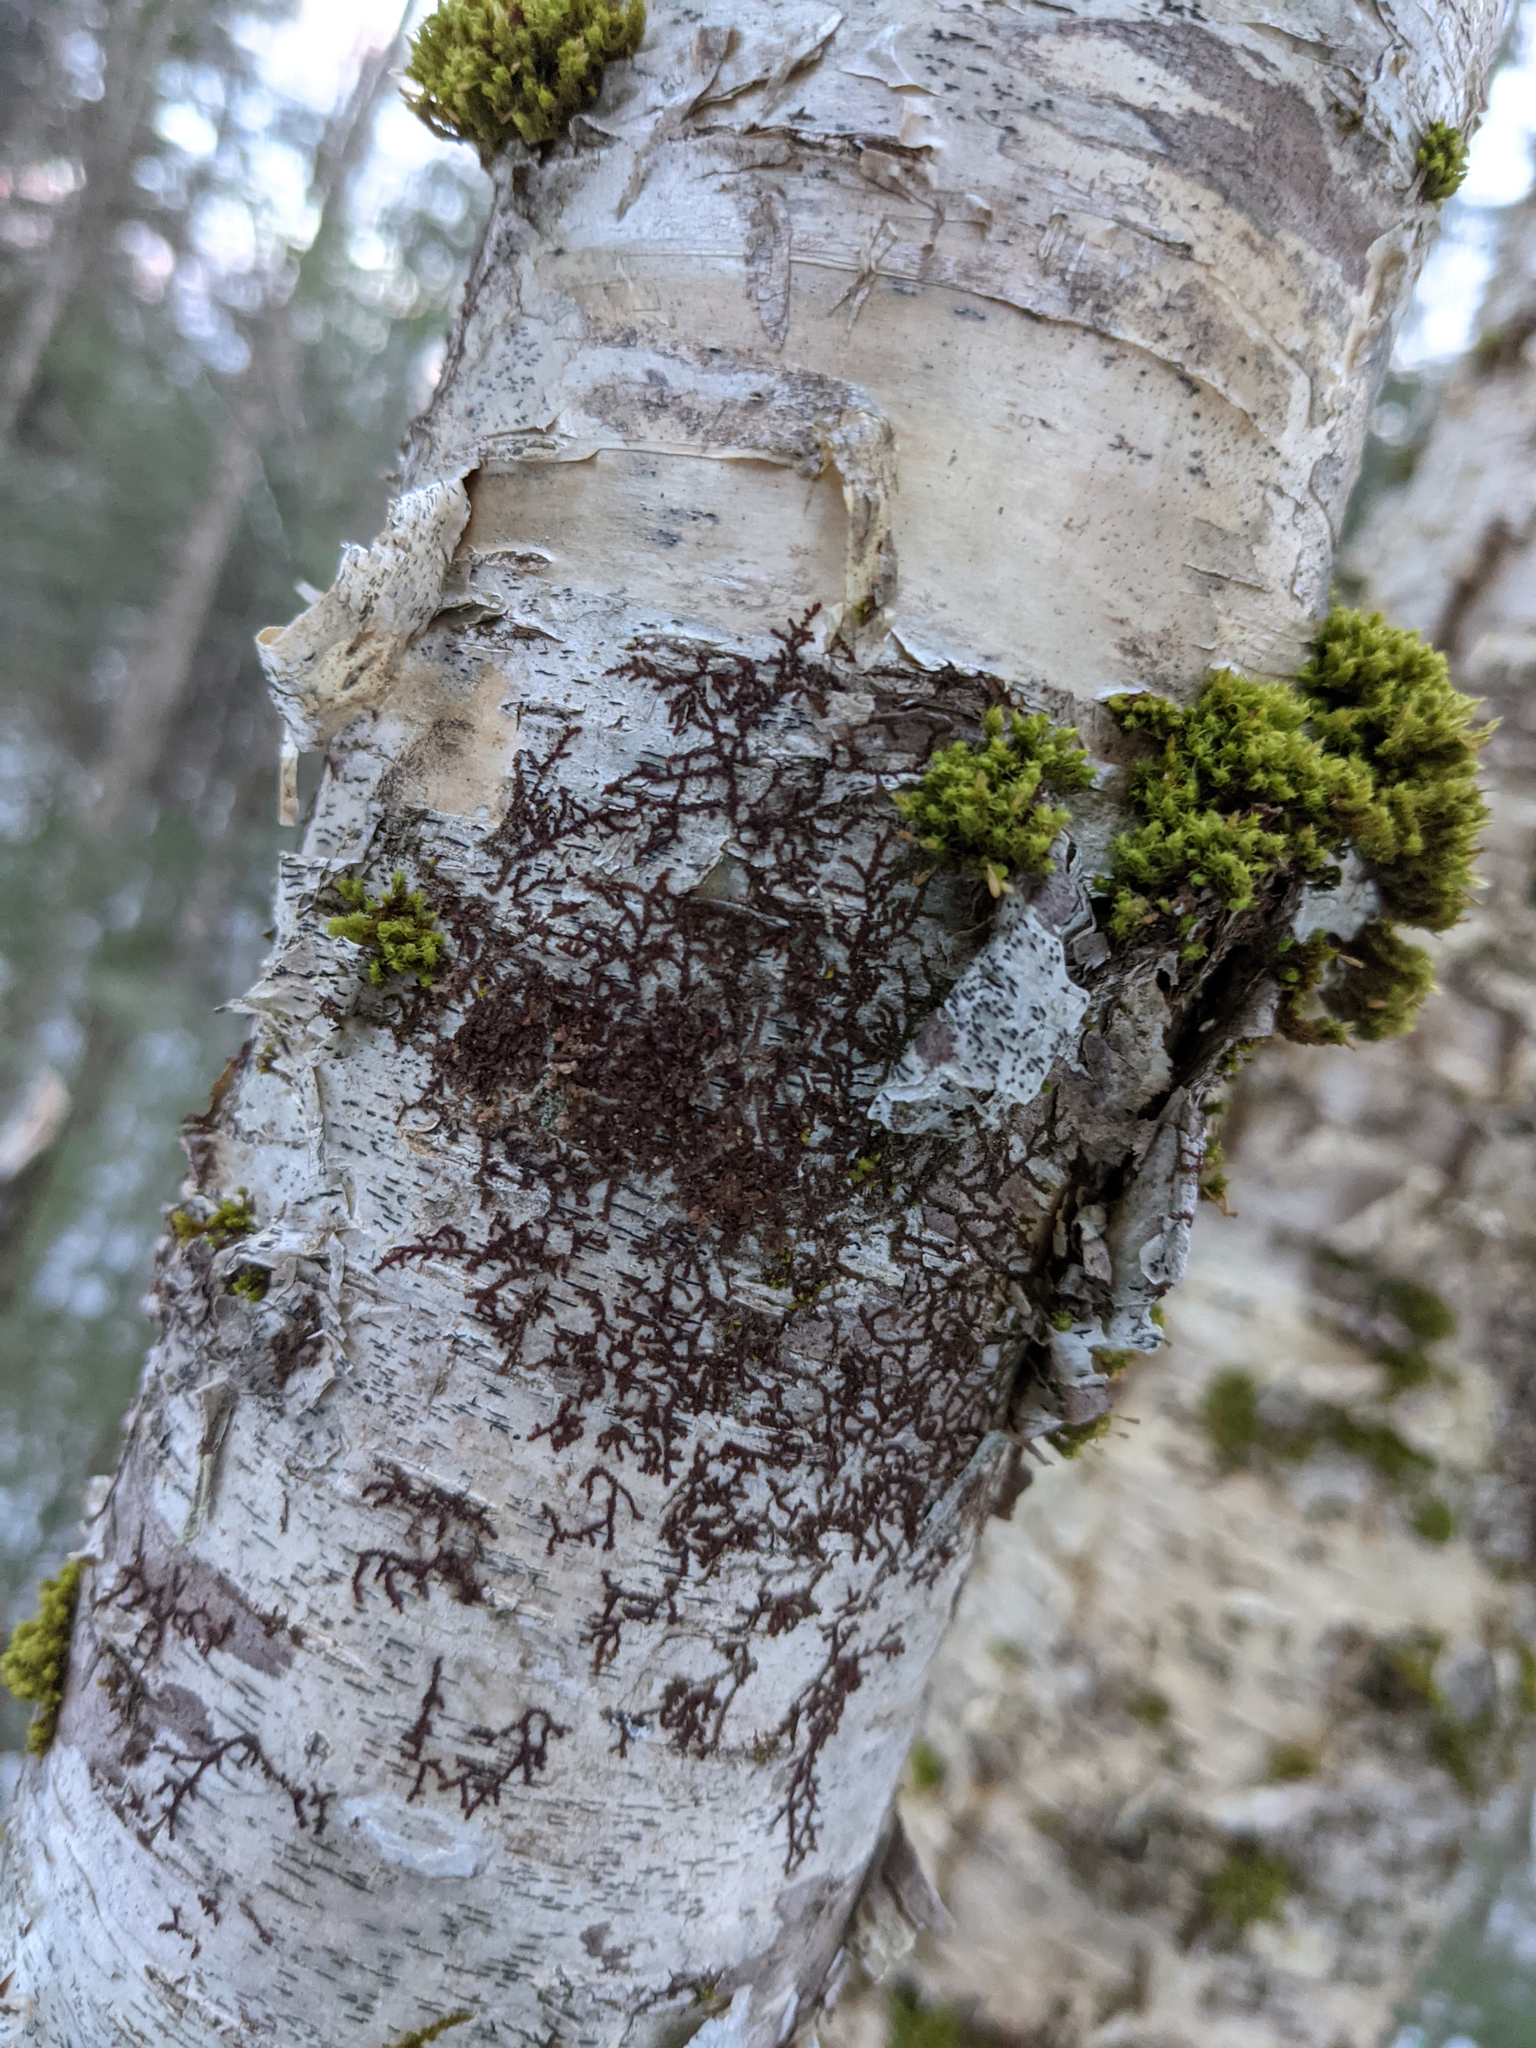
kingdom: Plantae
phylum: Bryophyta
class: Bryopsida
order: Orthotrichales
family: Orthotrichaceae
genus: Ulota
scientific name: Ulota crispa
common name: Crisped pincushion moss
